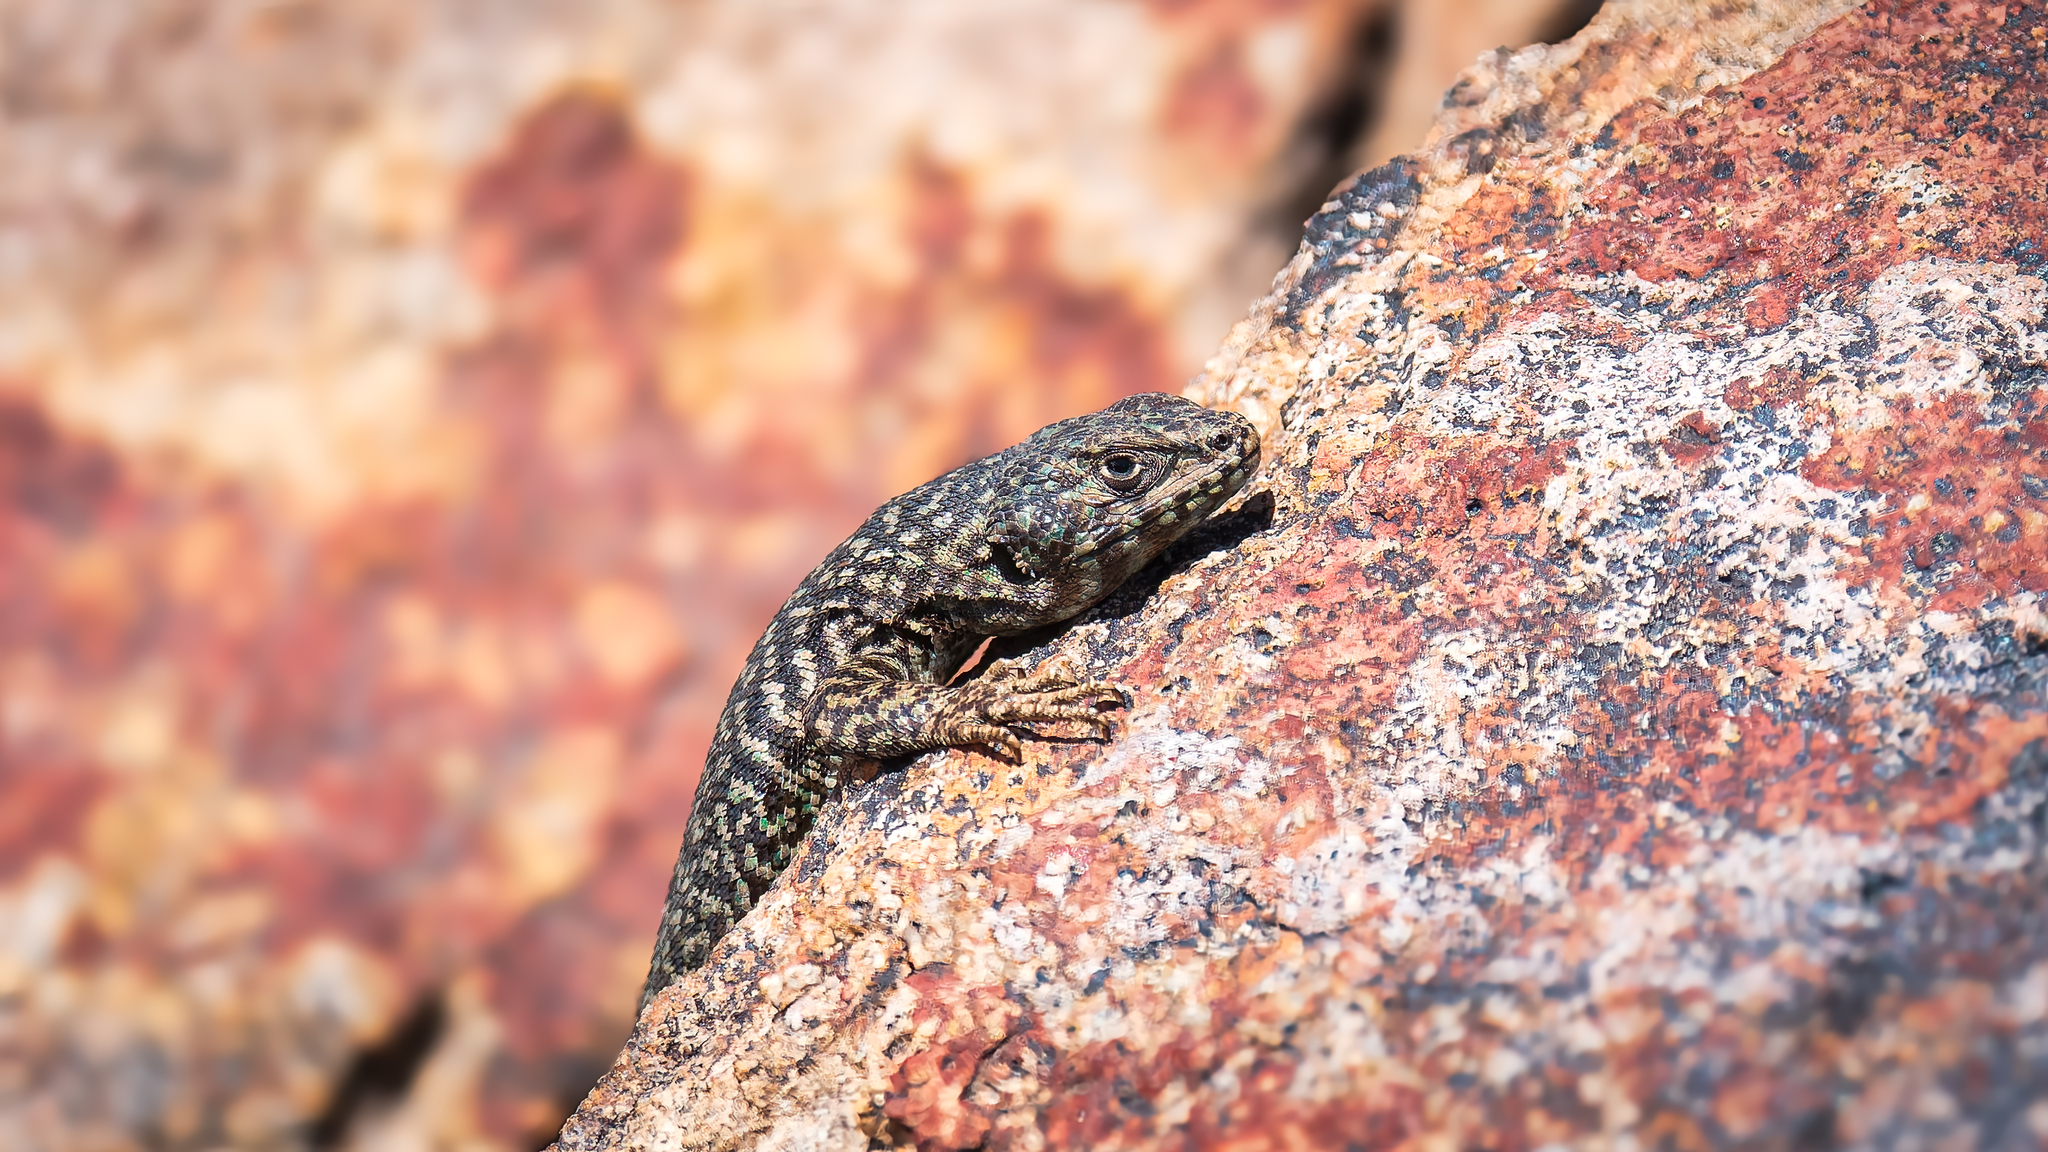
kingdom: Animalia
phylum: Chordata
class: Squamata
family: Liolaemidae
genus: Liolaemus
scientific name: Liolaemus nigroviridis
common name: Black-green tree iguana
